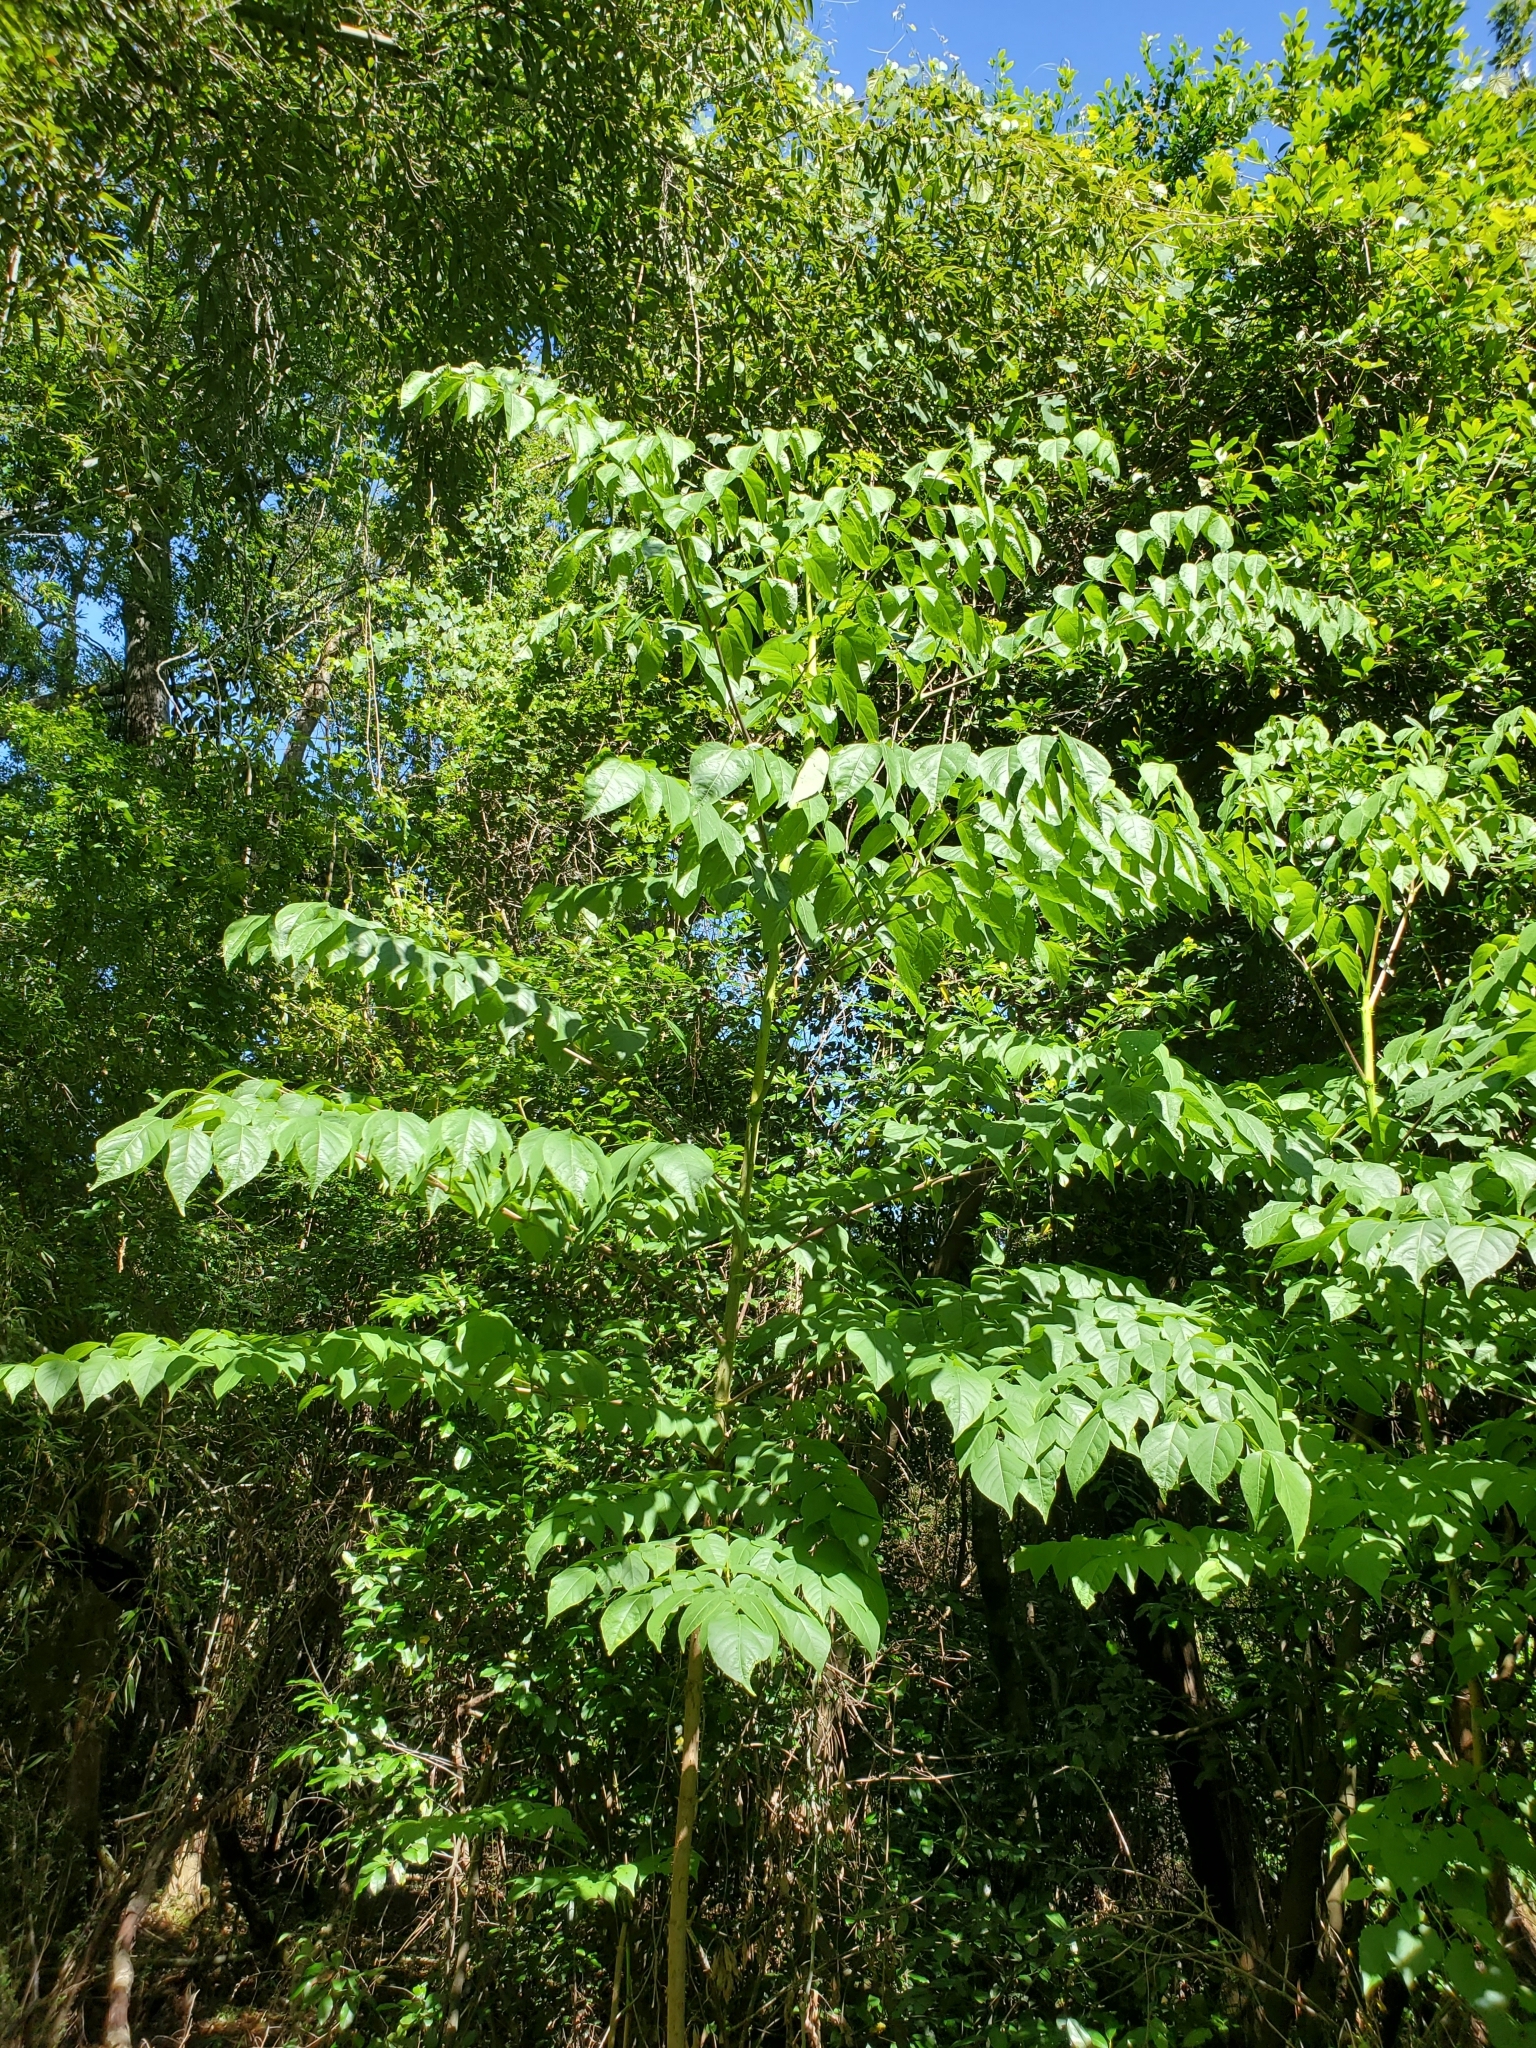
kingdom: Plantae
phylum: Tracheophyta
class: Magnoliopsida
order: Apiales
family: Araliaceae
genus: Aralia
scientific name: Aralia spinosa
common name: Hercules'-club
